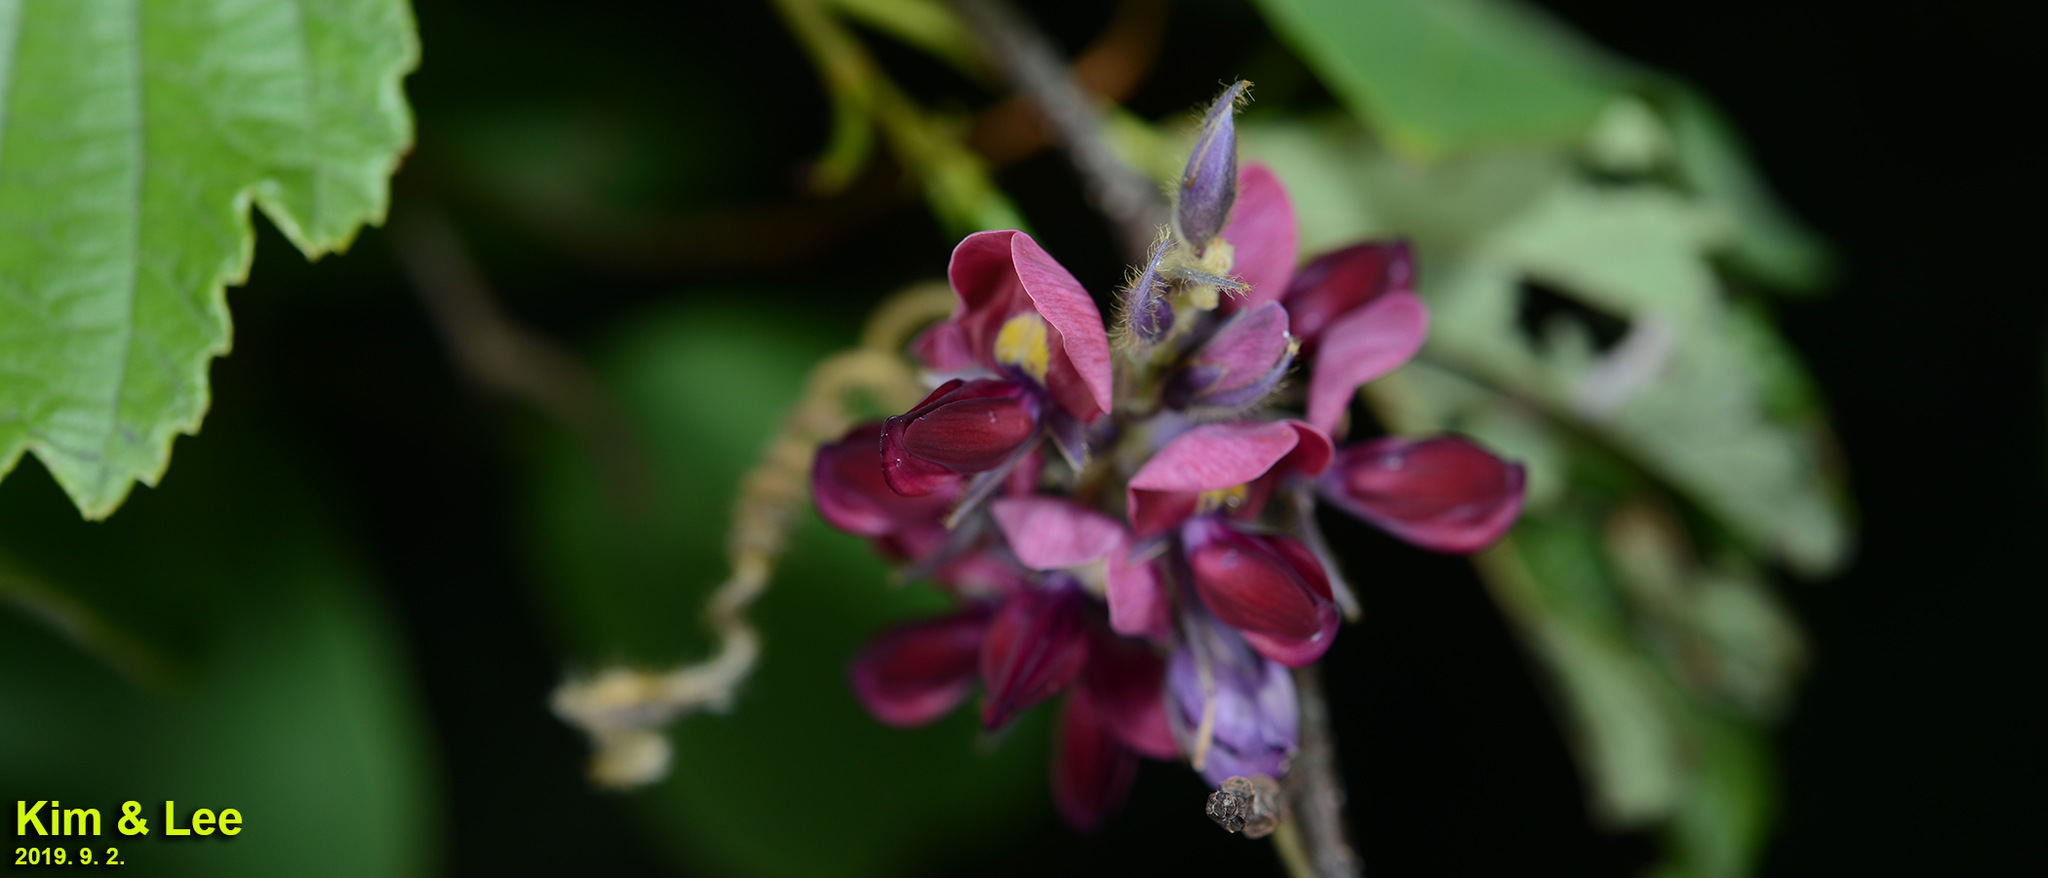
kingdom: Plantae
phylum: Tracheophyta
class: Magnoliopsida
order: Fabales
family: Fabaceae
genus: Pueraria
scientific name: Pueraria montana
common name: Kudzu
